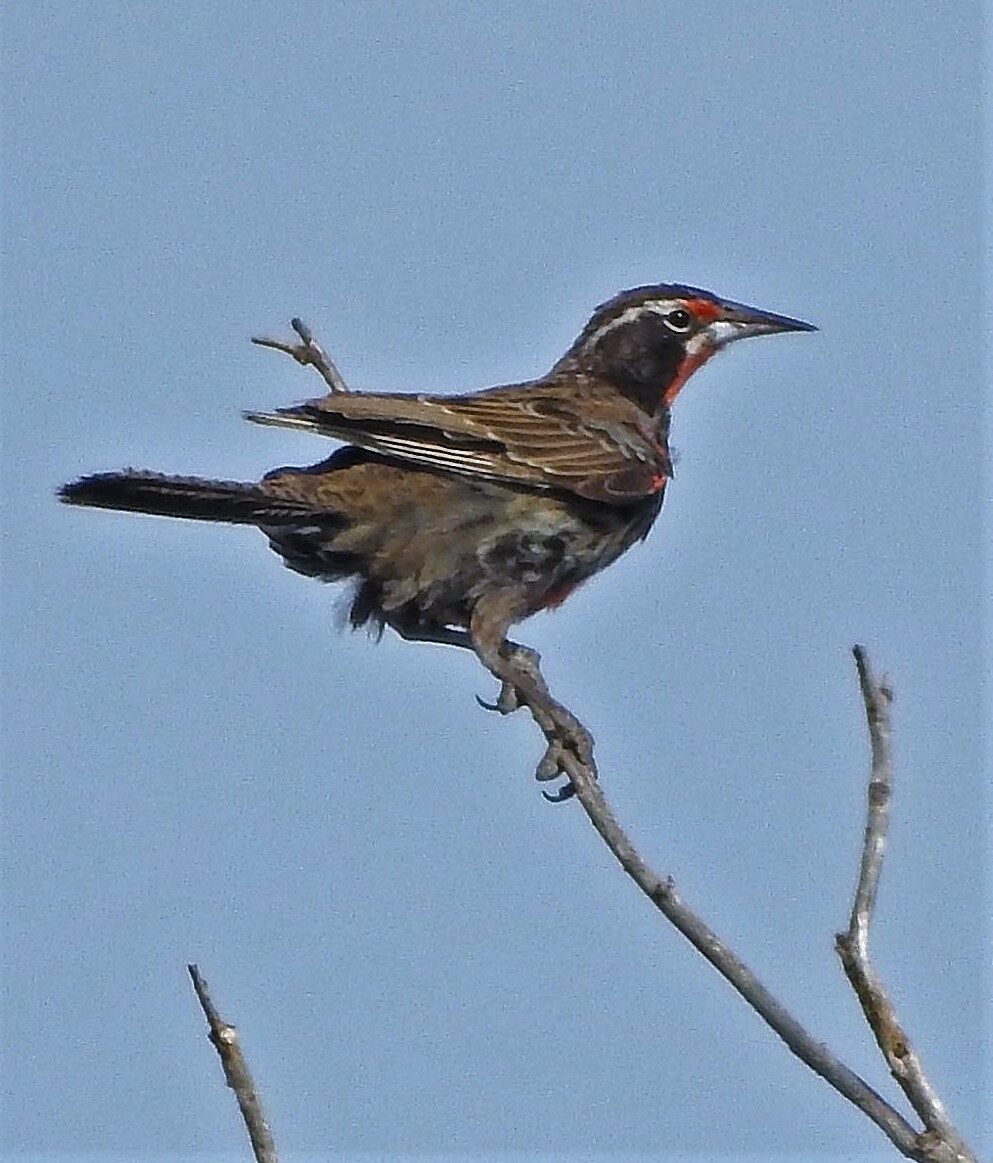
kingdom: Animalia
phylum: Chordata
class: Aves
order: Passeriformes
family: Icteridae
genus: Sturnella
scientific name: Sturnella loyca
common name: Long-tailed meadowlark
